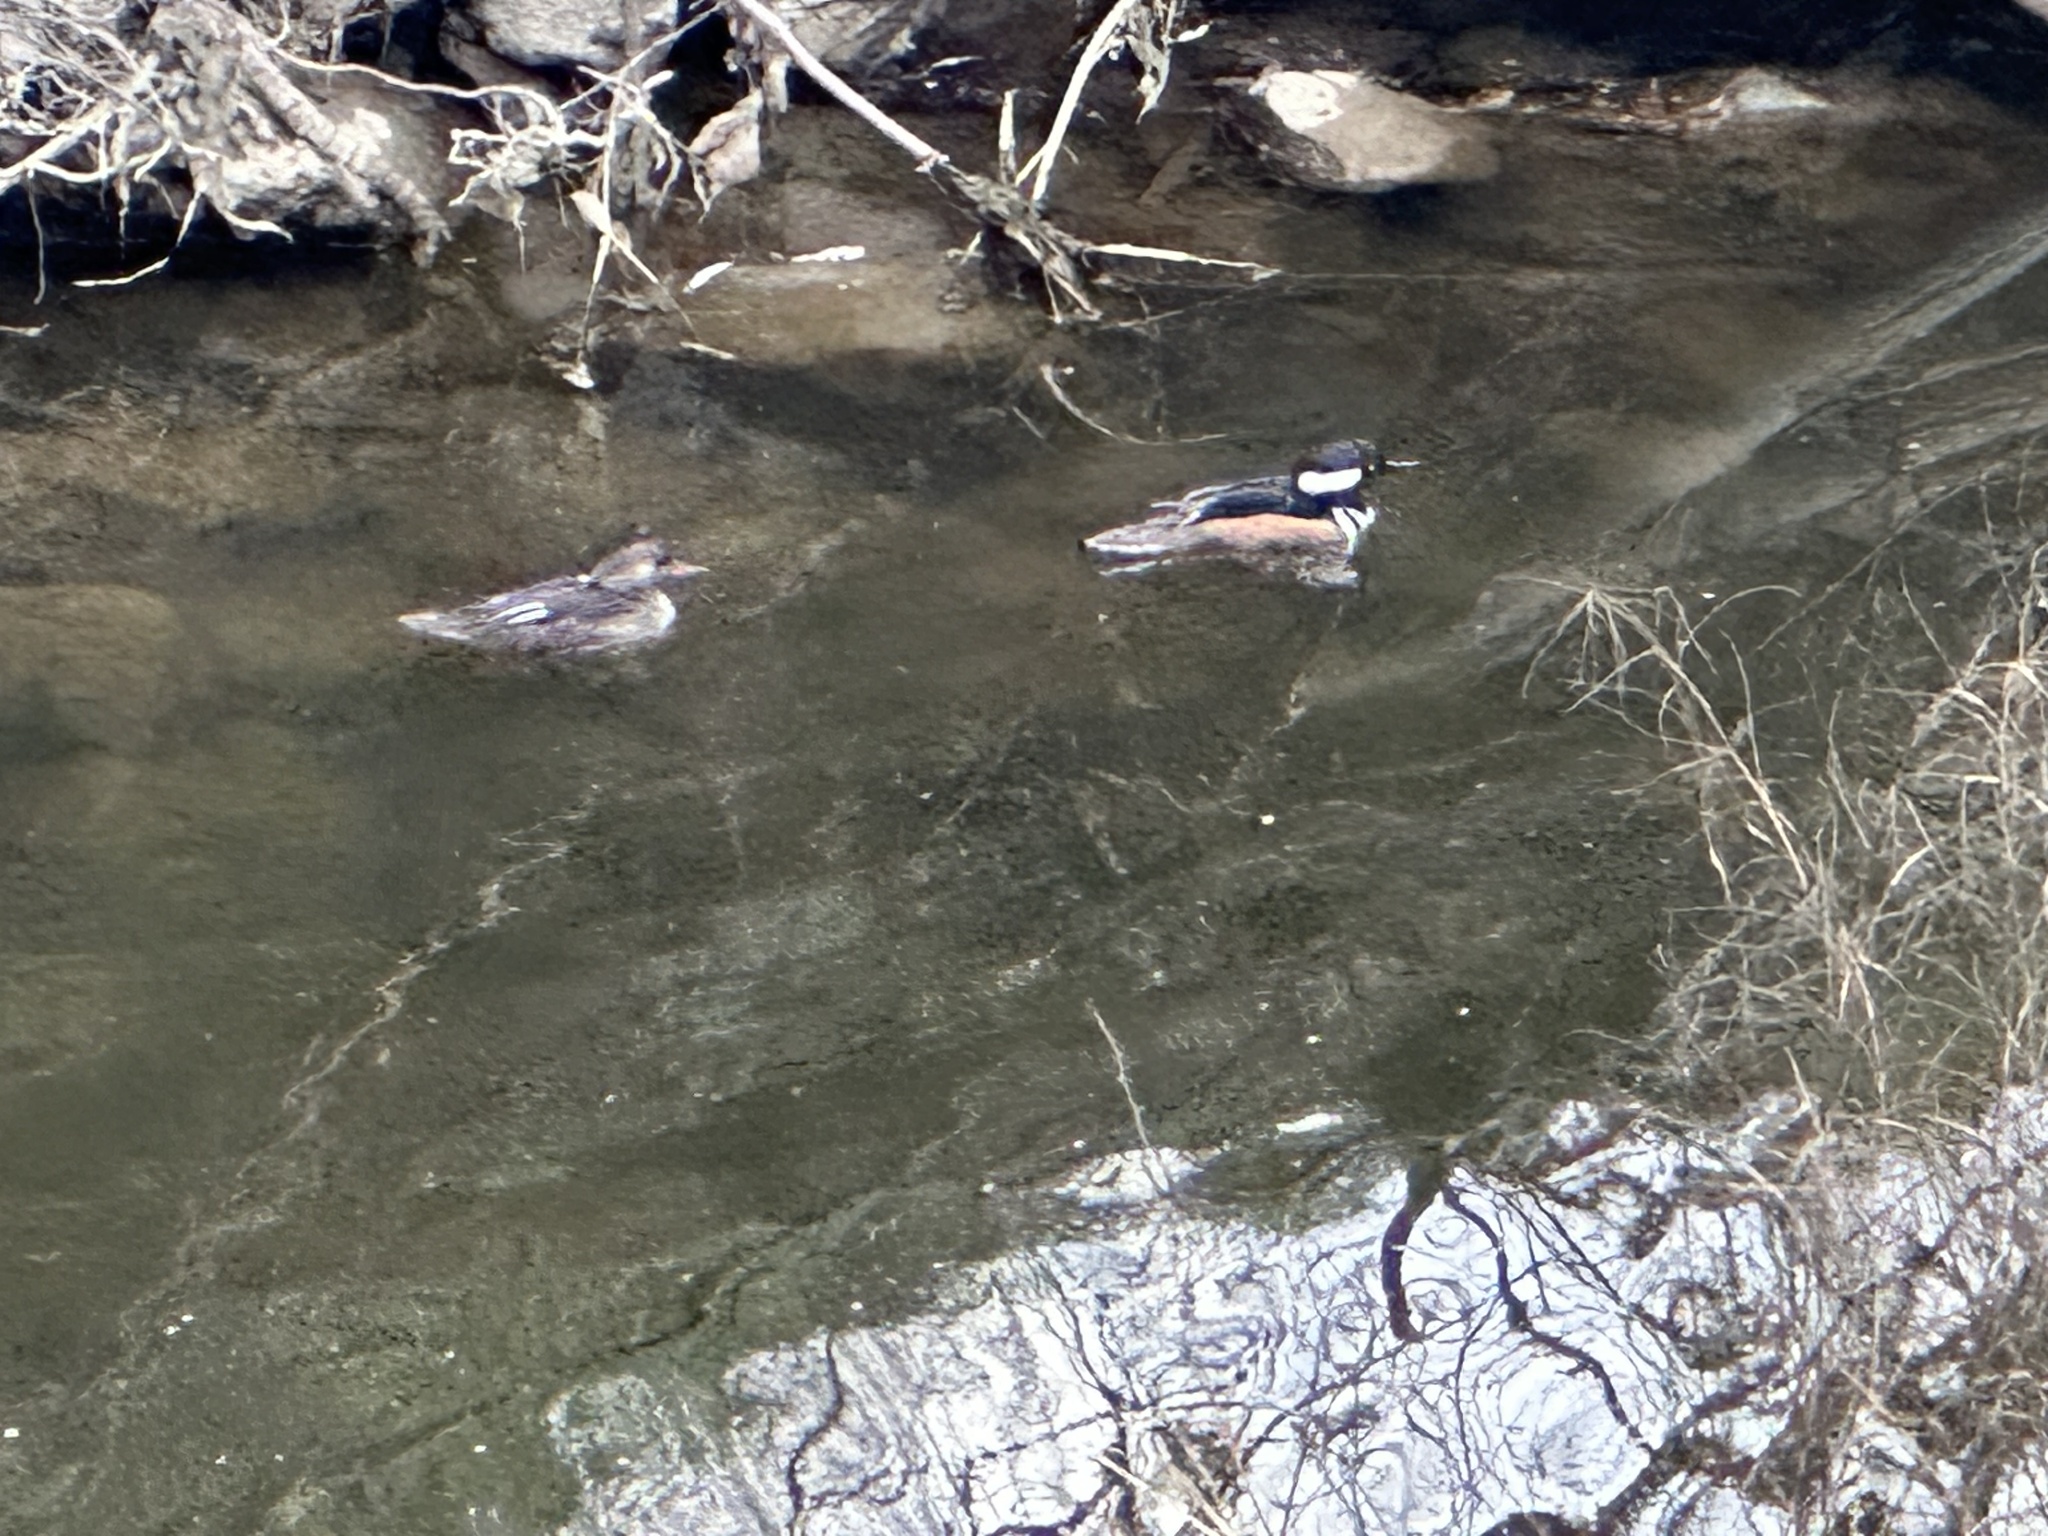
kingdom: Animalia
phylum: Chordata
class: Aves
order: Anseriformes
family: Anatidae
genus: Lophodytes
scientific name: Lophodytes cucullatus
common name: Hooded merganser
